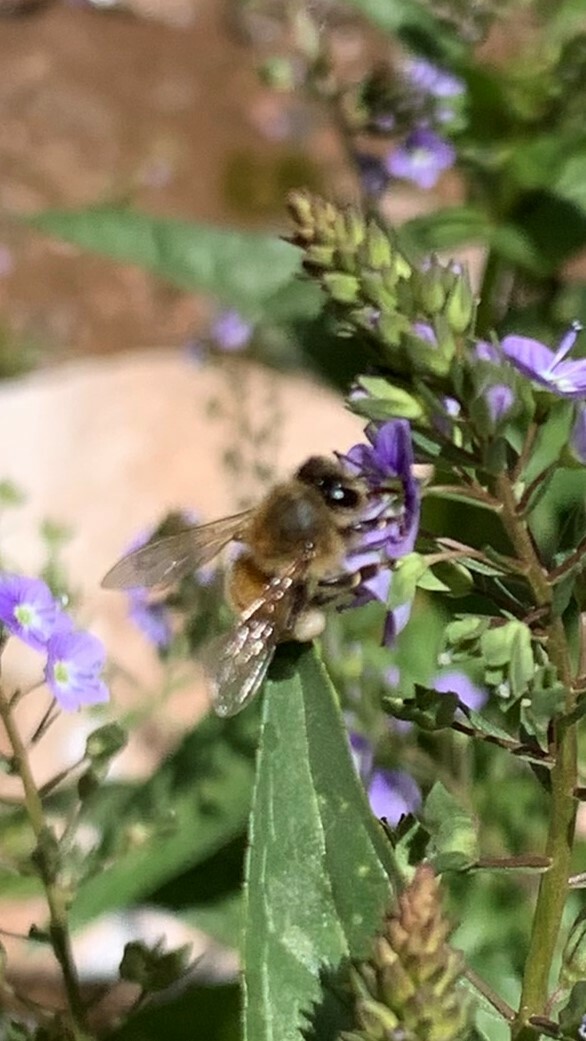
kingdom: Animalia
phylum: Arthropoda
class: Insecta
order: Hymenoptera
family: Apidae
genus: Apis
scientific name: Apis mellifera
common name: Honey bee
